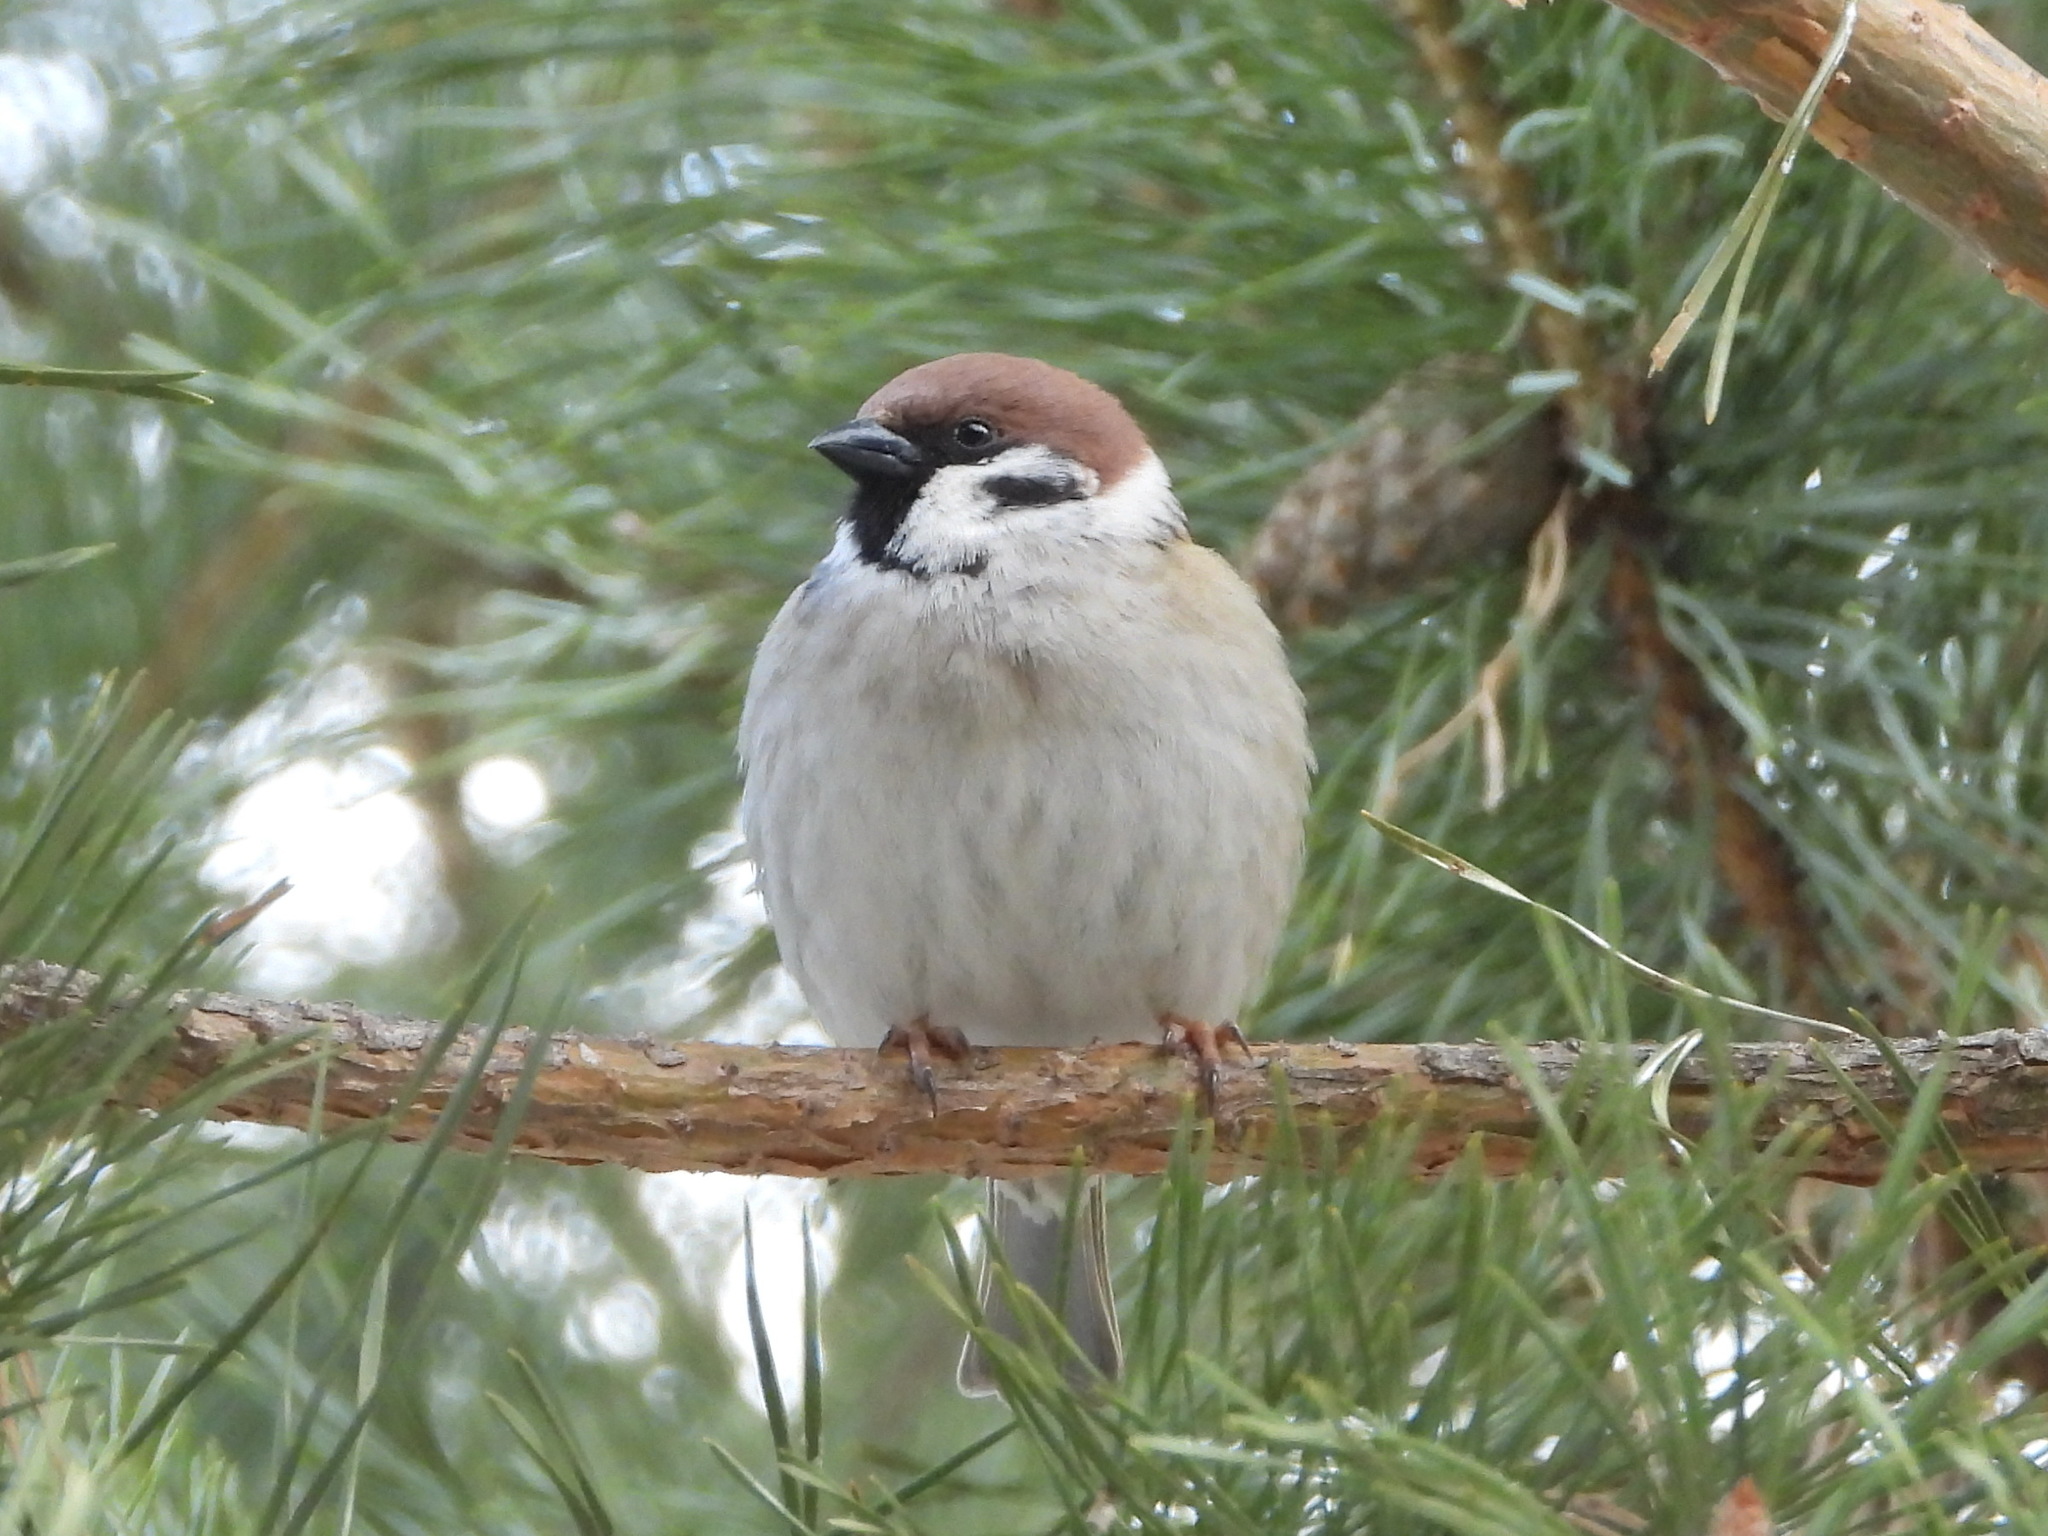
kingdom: Animalia
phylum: Chordata
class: Aves
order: Passeriformes
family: Passeridae
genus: Passer
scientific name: Passer montanus
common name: Eurasian tree sparrow
